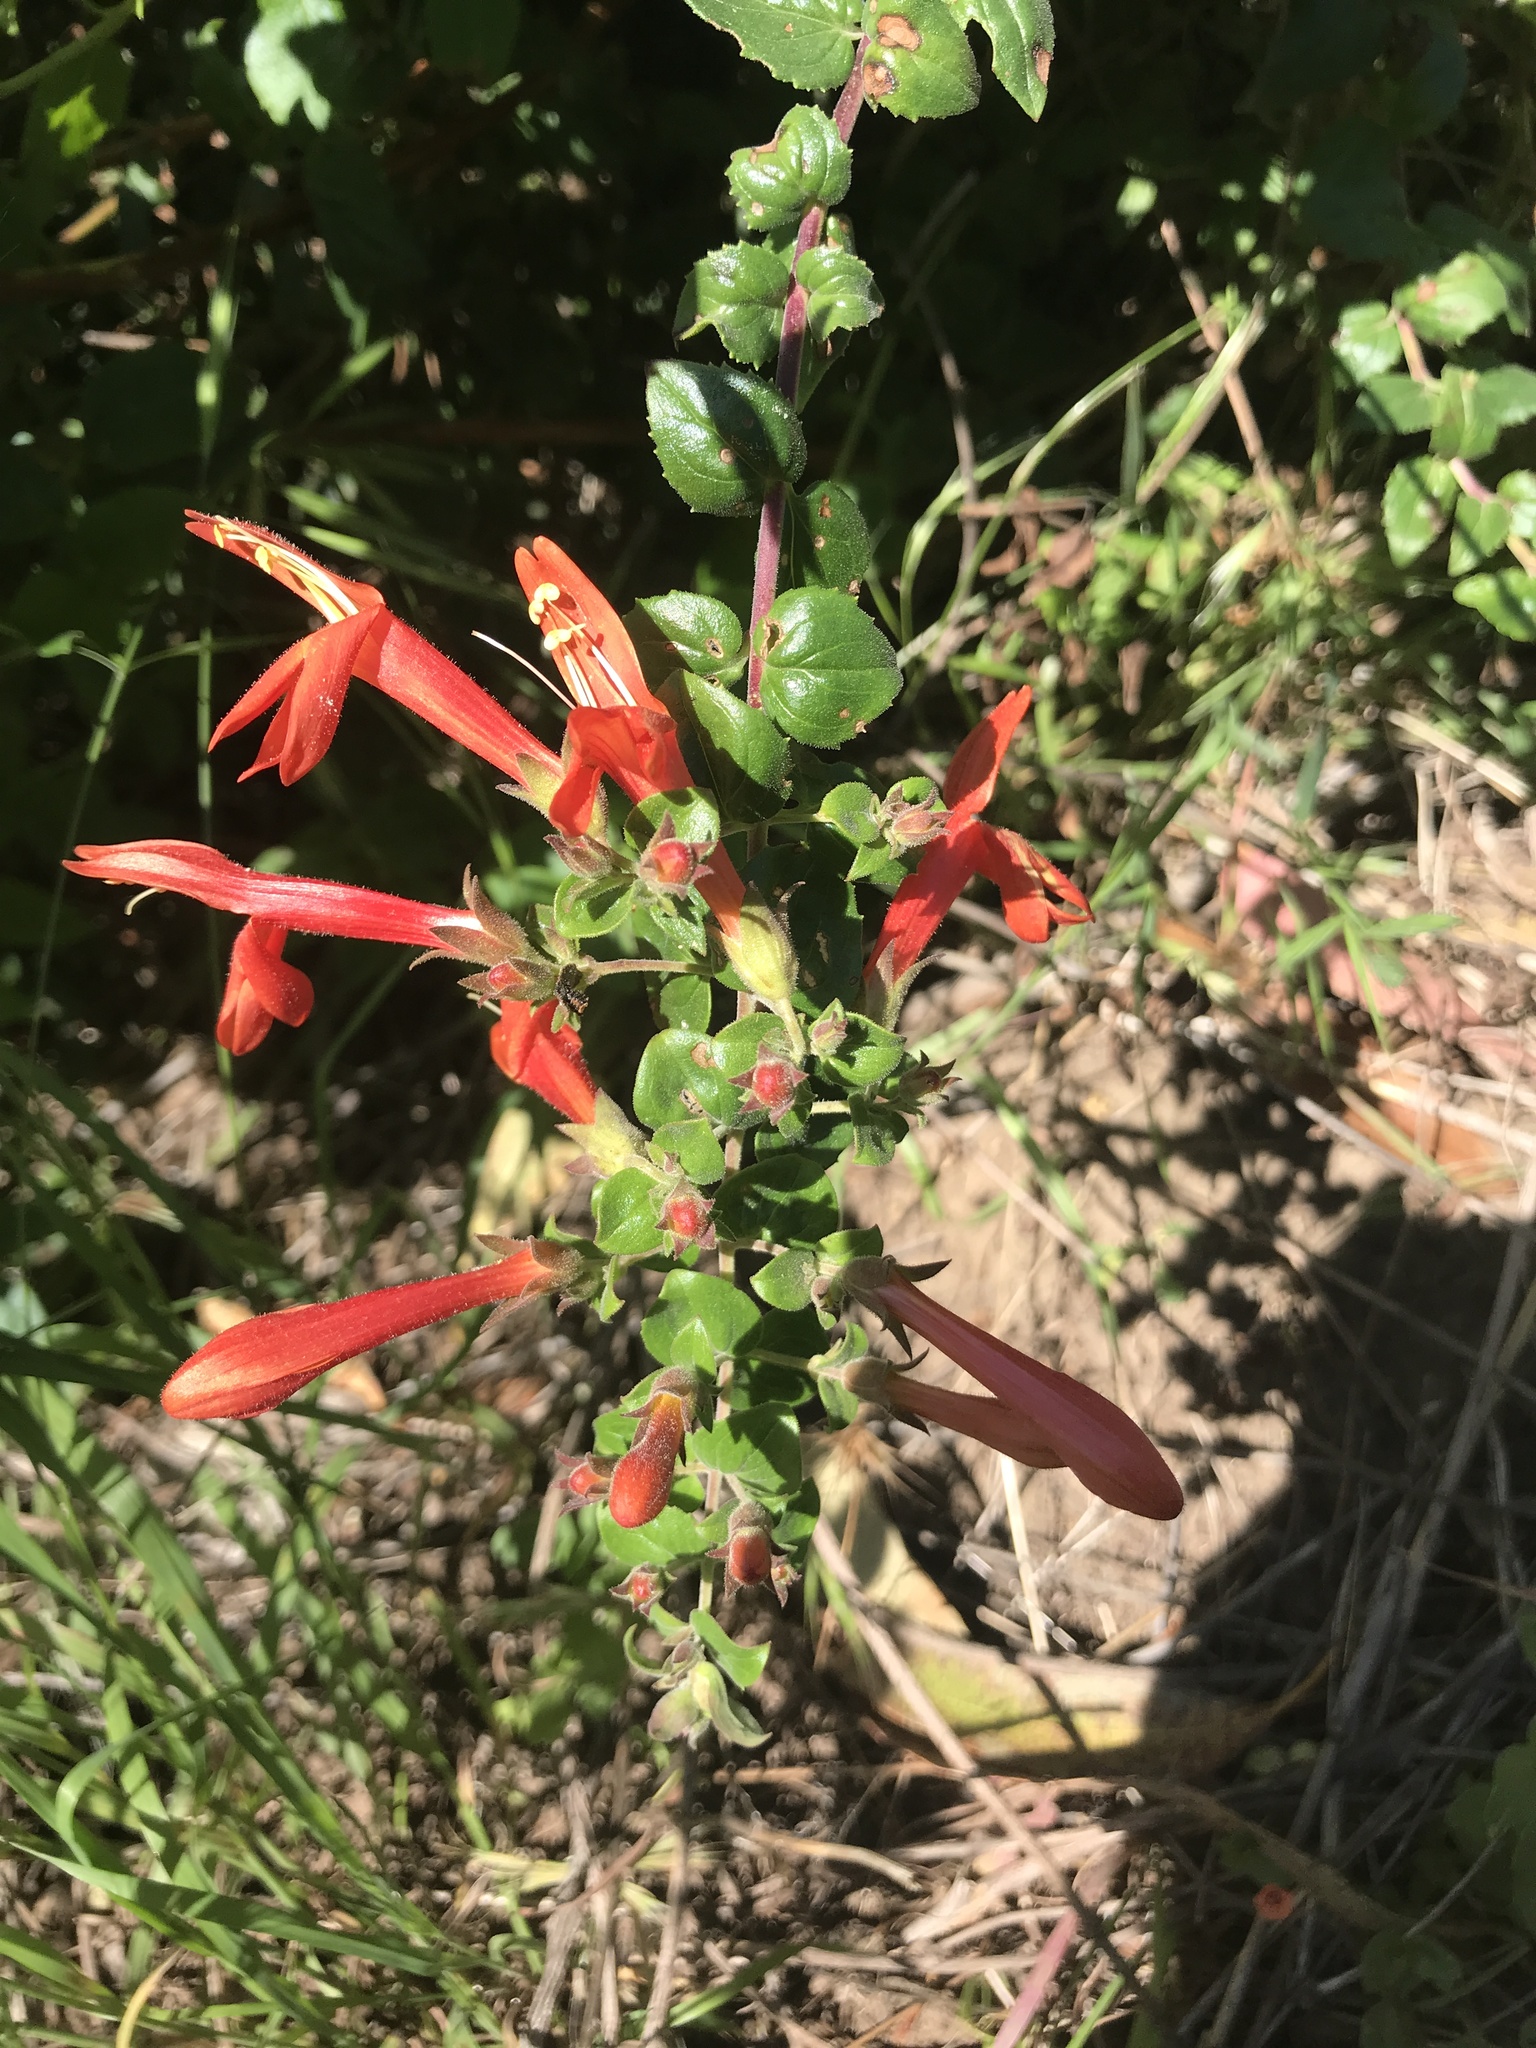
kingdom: Plantae
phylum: Tracheophyta
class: Magnoliopsida
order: Lamiales
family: Plantaginaceae
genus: Keckiella
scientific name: Keckiella cordifolia
